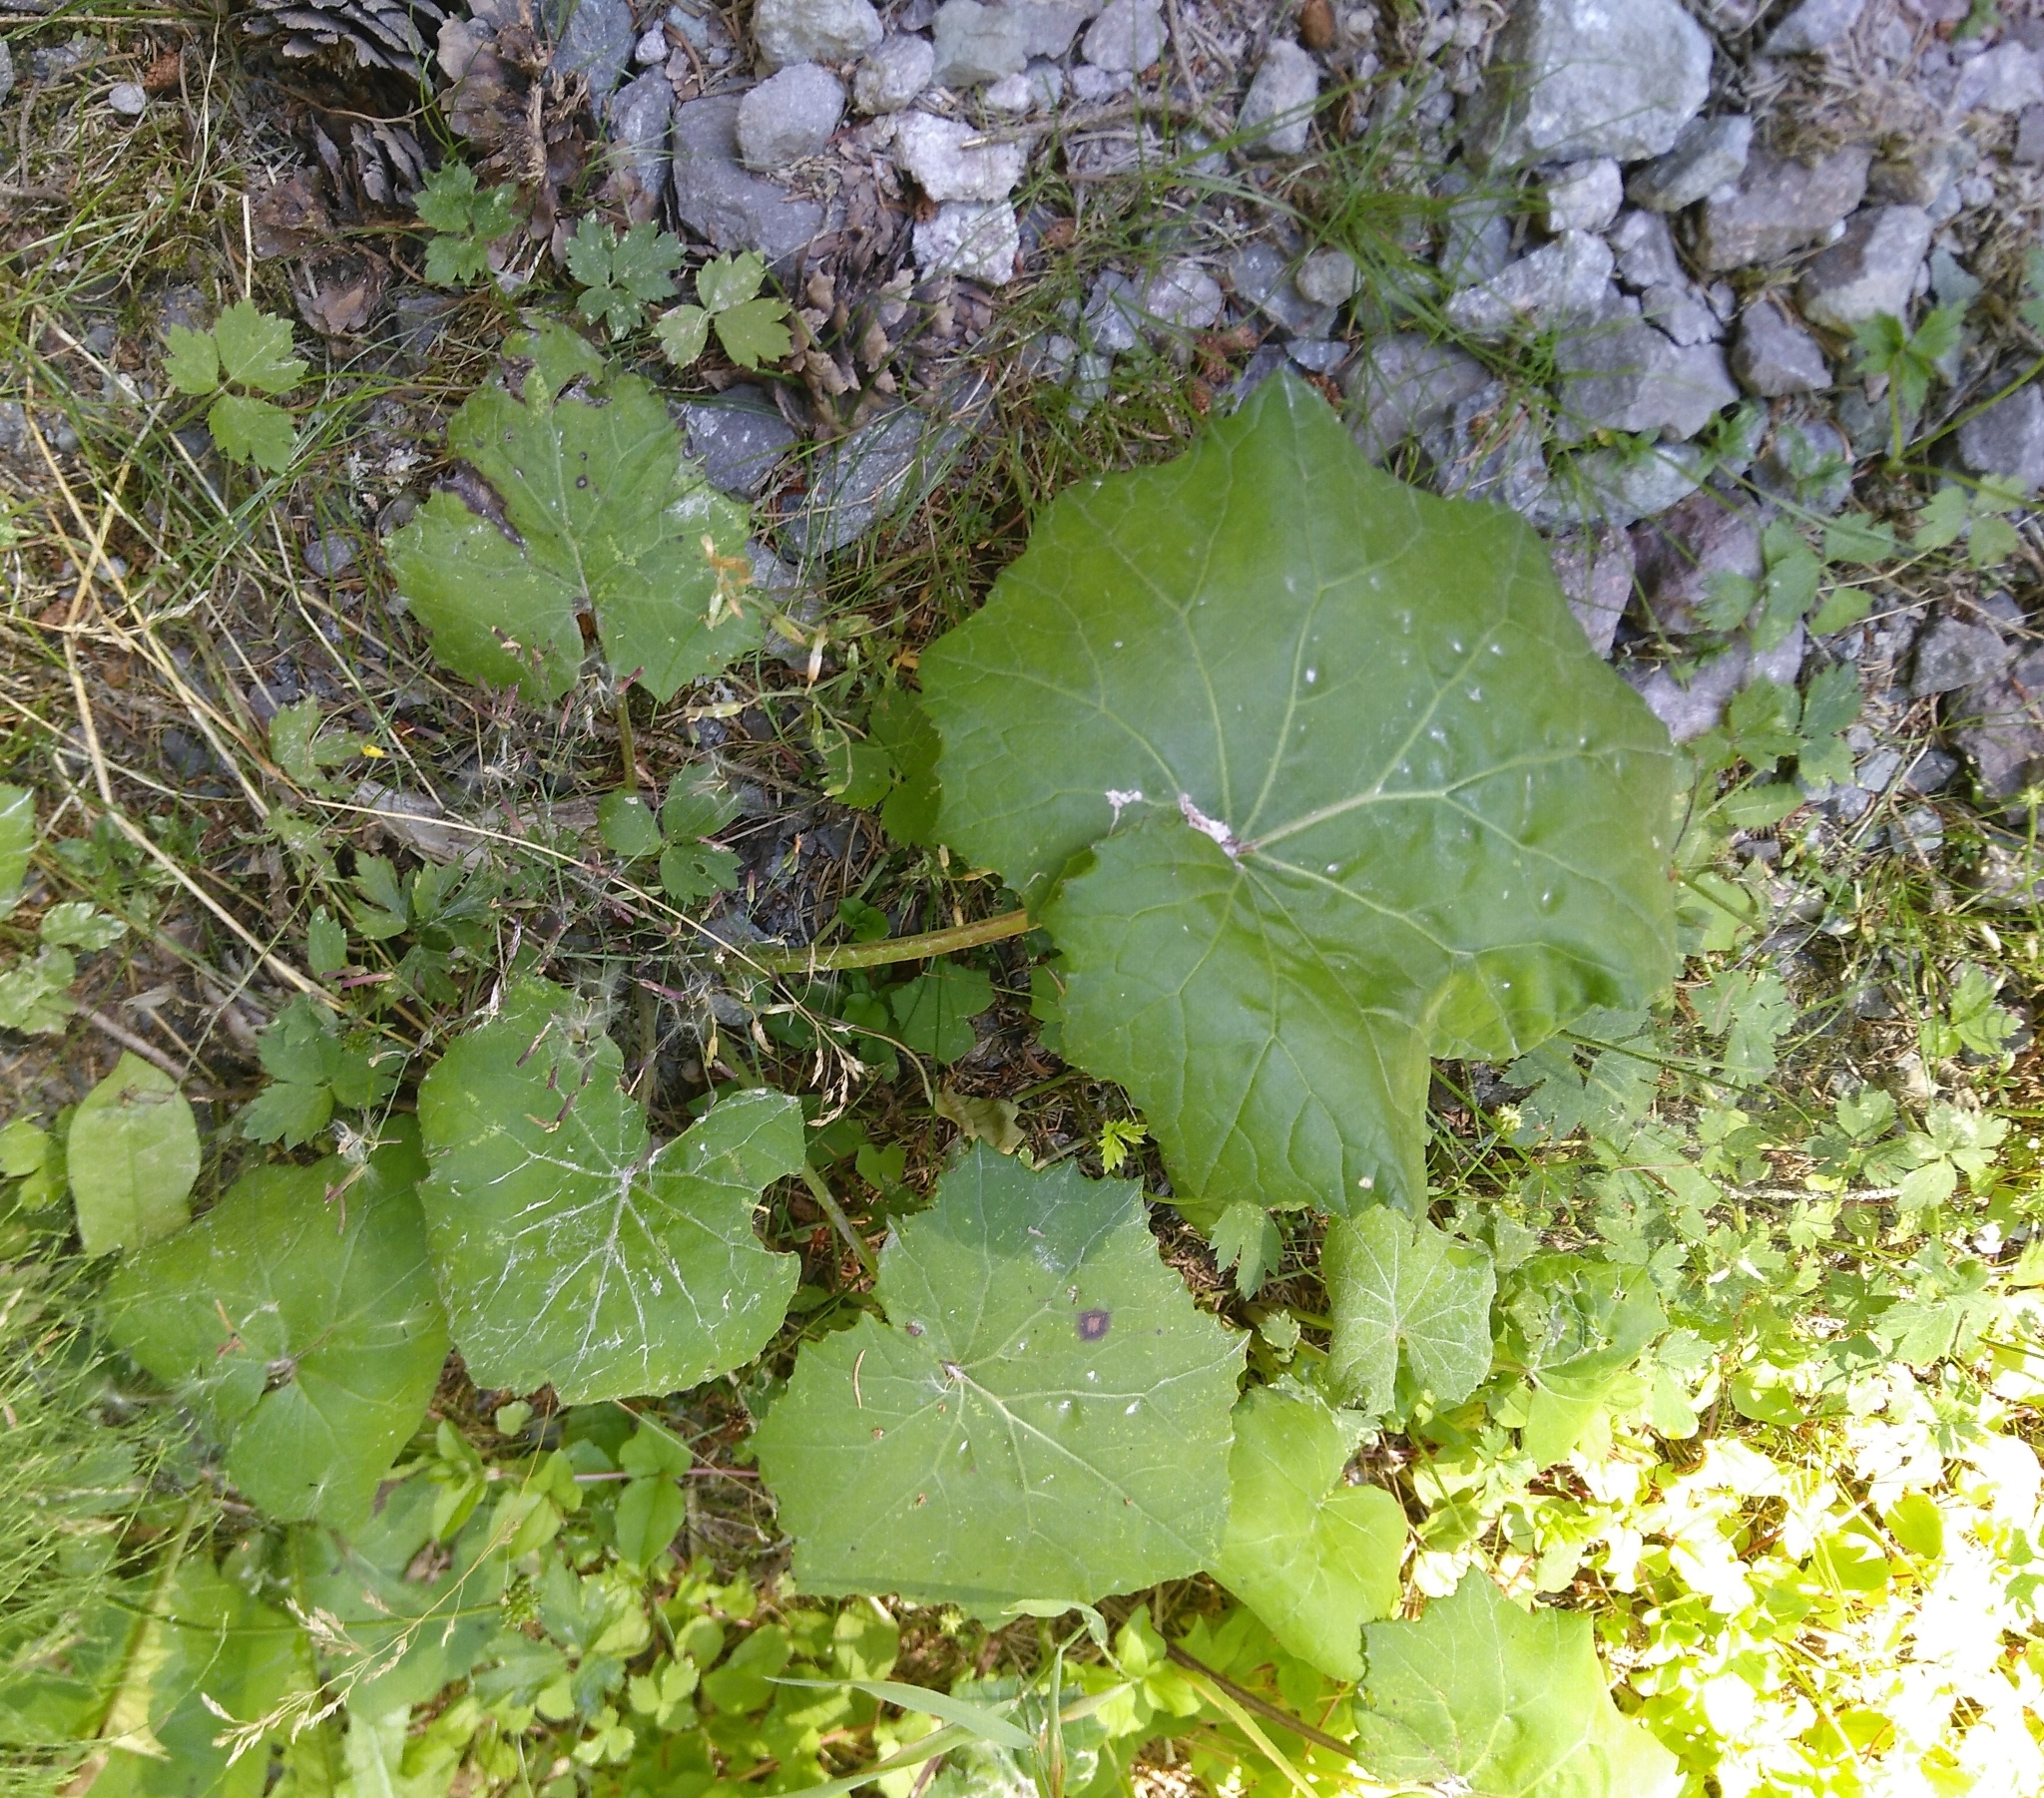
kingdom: Plantae
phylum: Tracheophyta
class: Magnoliopsida
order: Asterales
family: Asteraceae
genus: Tussilago
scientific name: Tussilago farfara
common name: Coltsfoot
